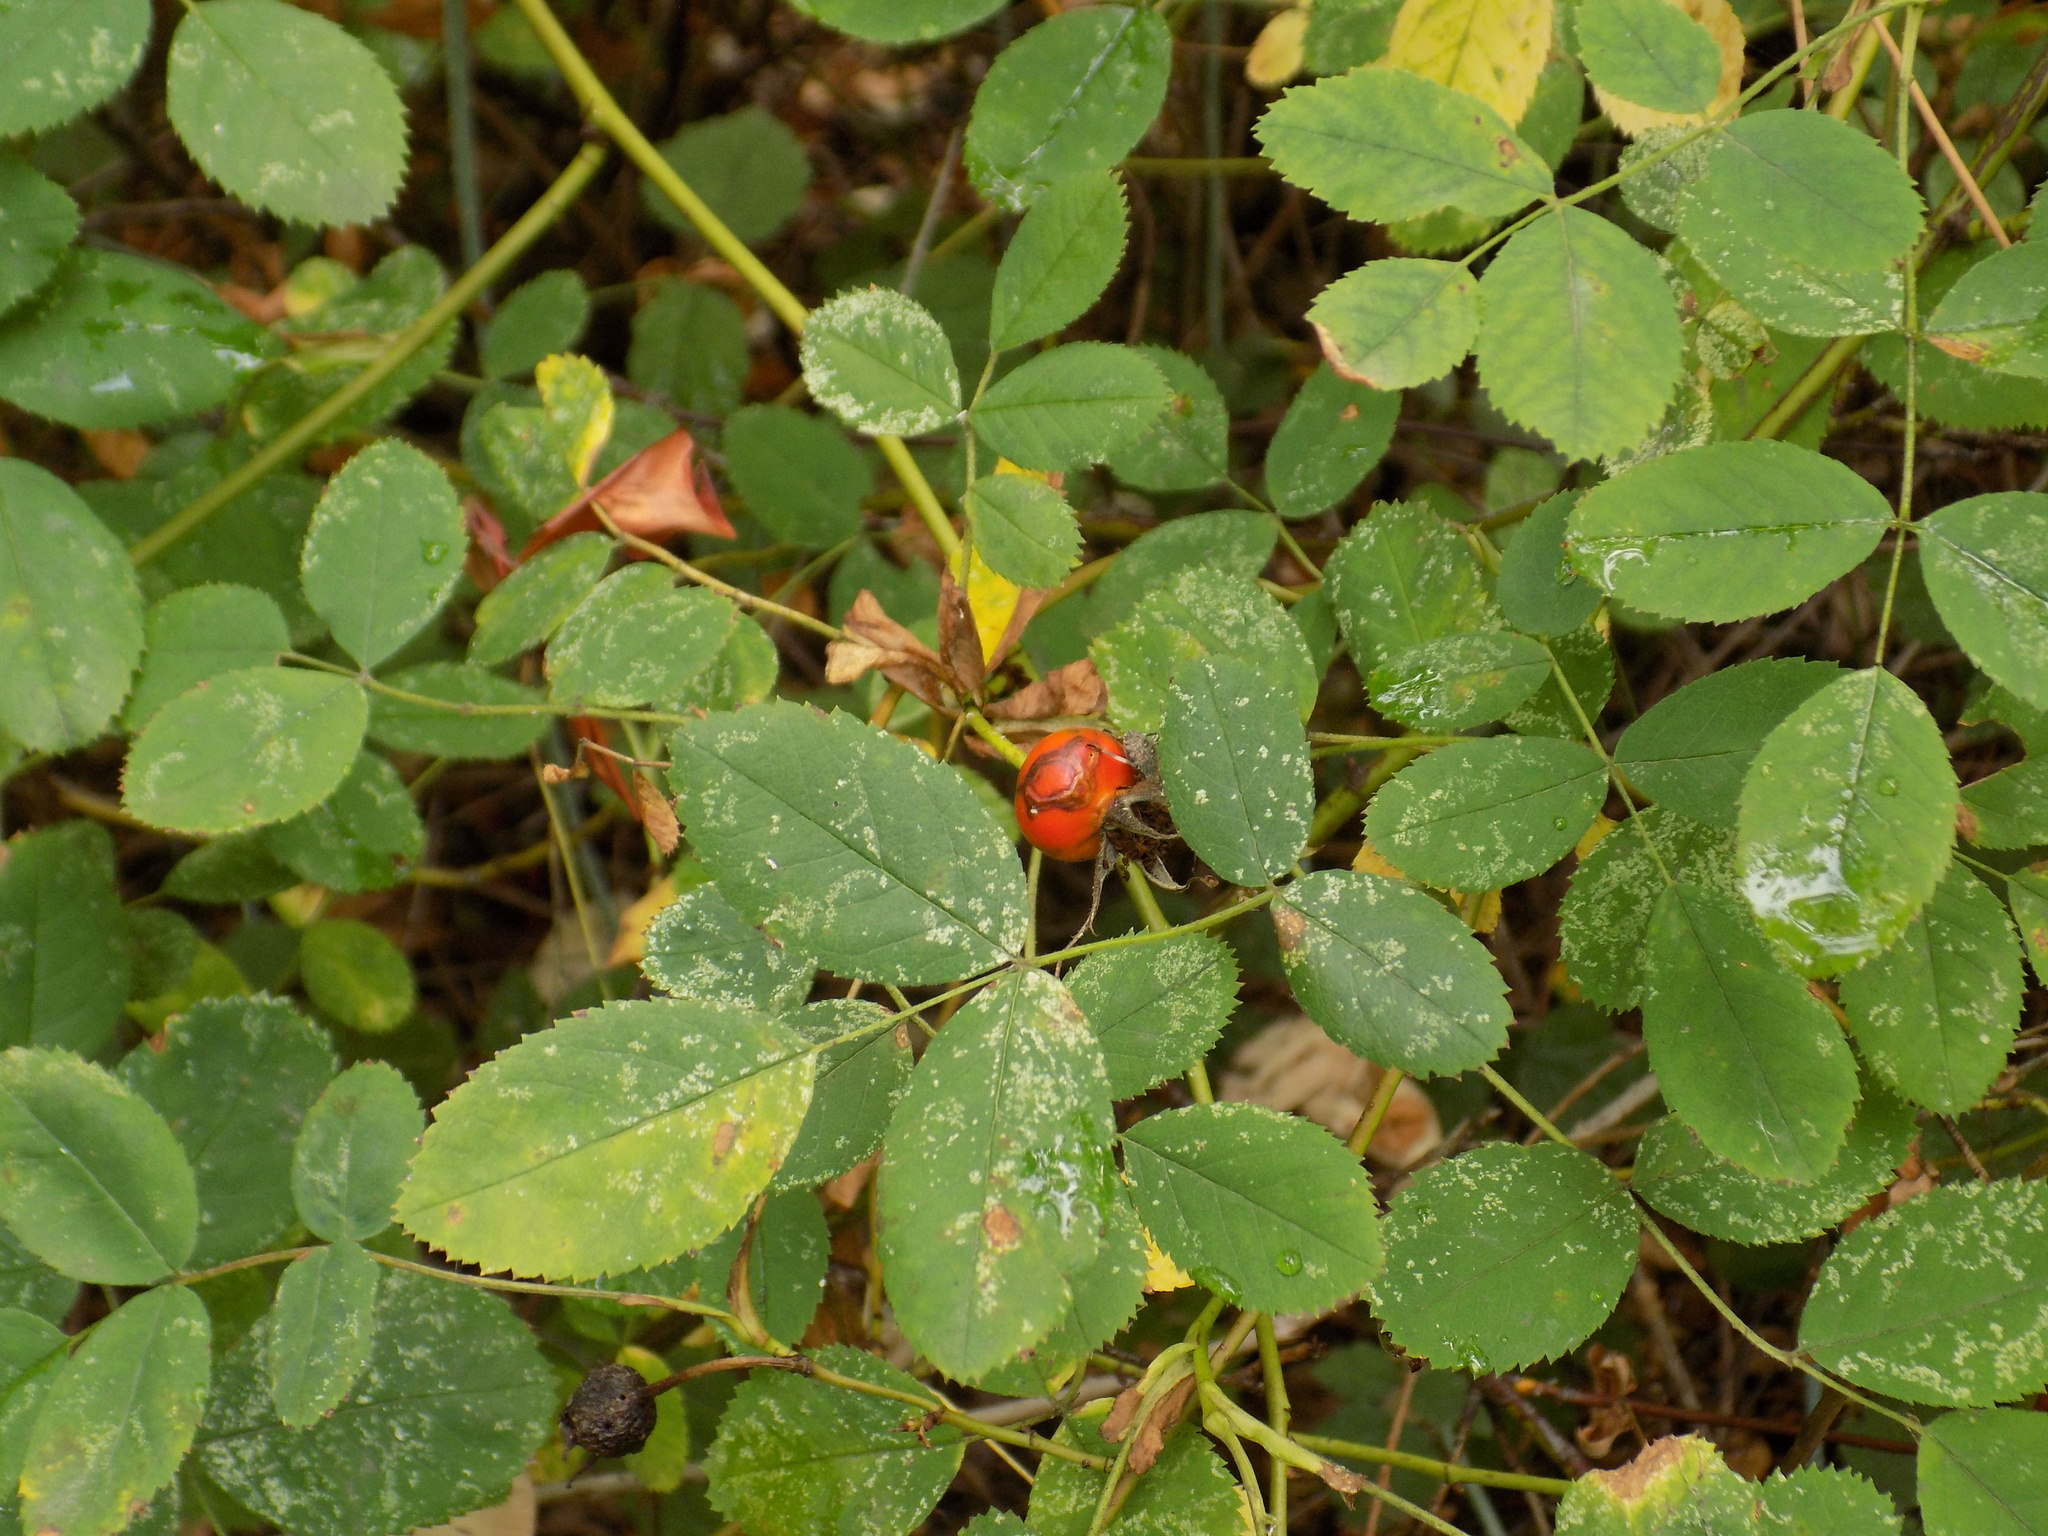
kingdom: Plantae
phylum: Tracheophyta
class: Magnoliopsida
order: Rosales
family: Rosaceae
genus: Rosa
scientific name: Rosa nutkana
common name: Nootka rose
